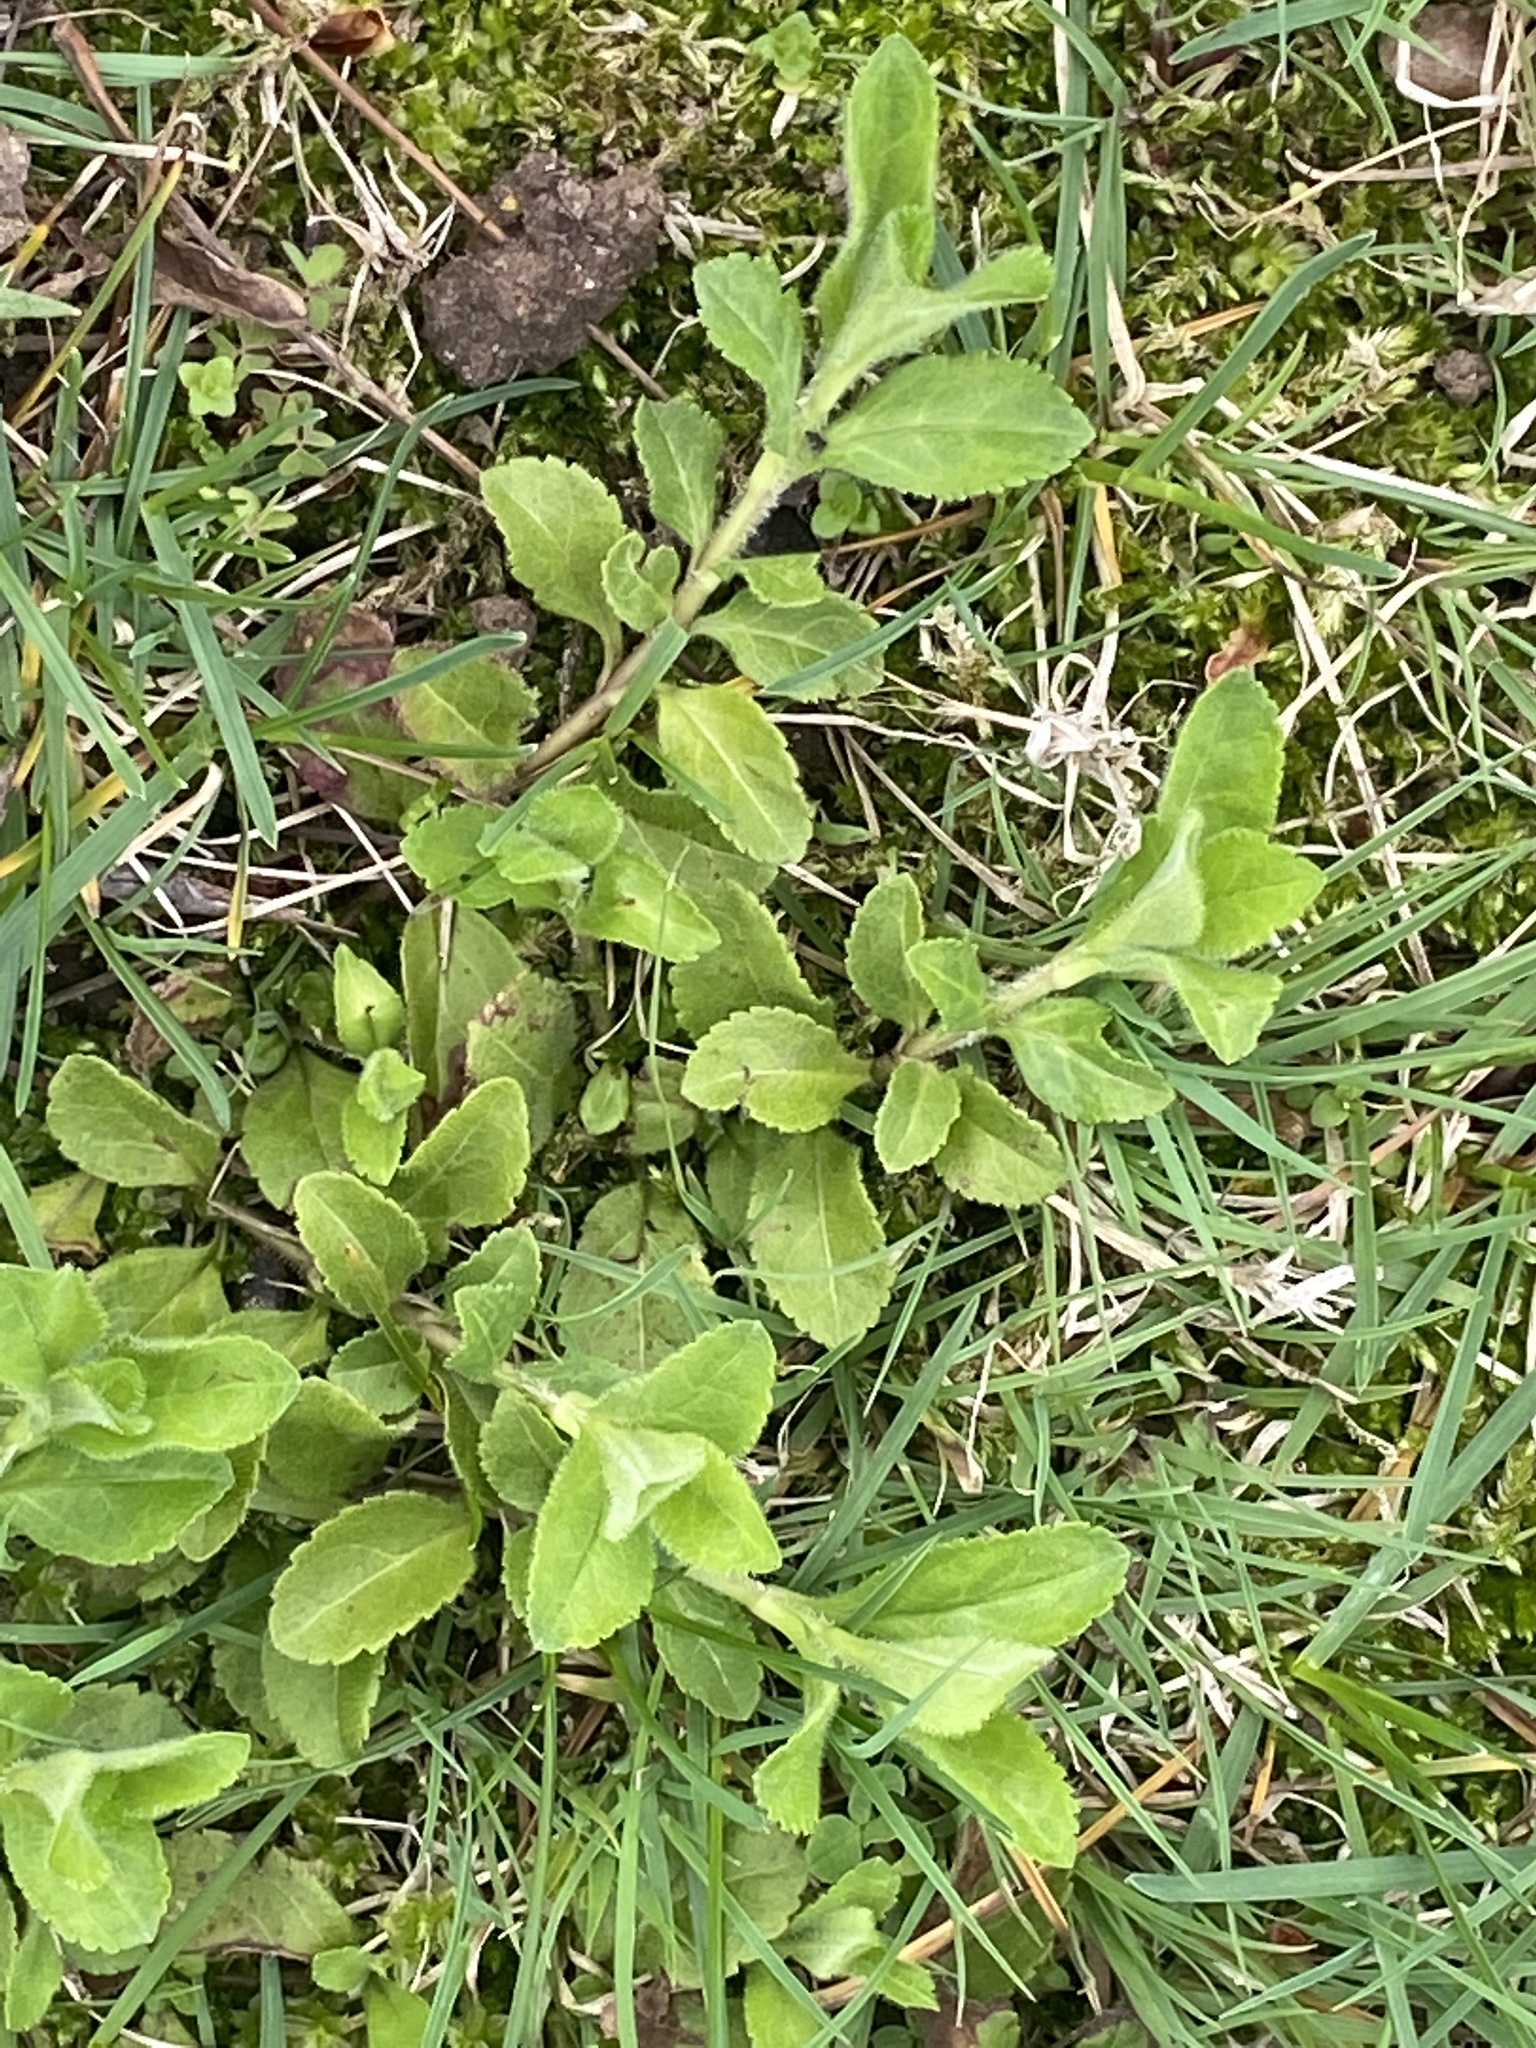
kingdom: Plantae
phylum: Tracheophyta
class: Magnoliopsida
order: Lamiales
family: Plantaginaceae
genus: Veronica
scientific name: Veronica officinalis
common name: Common speedwell
